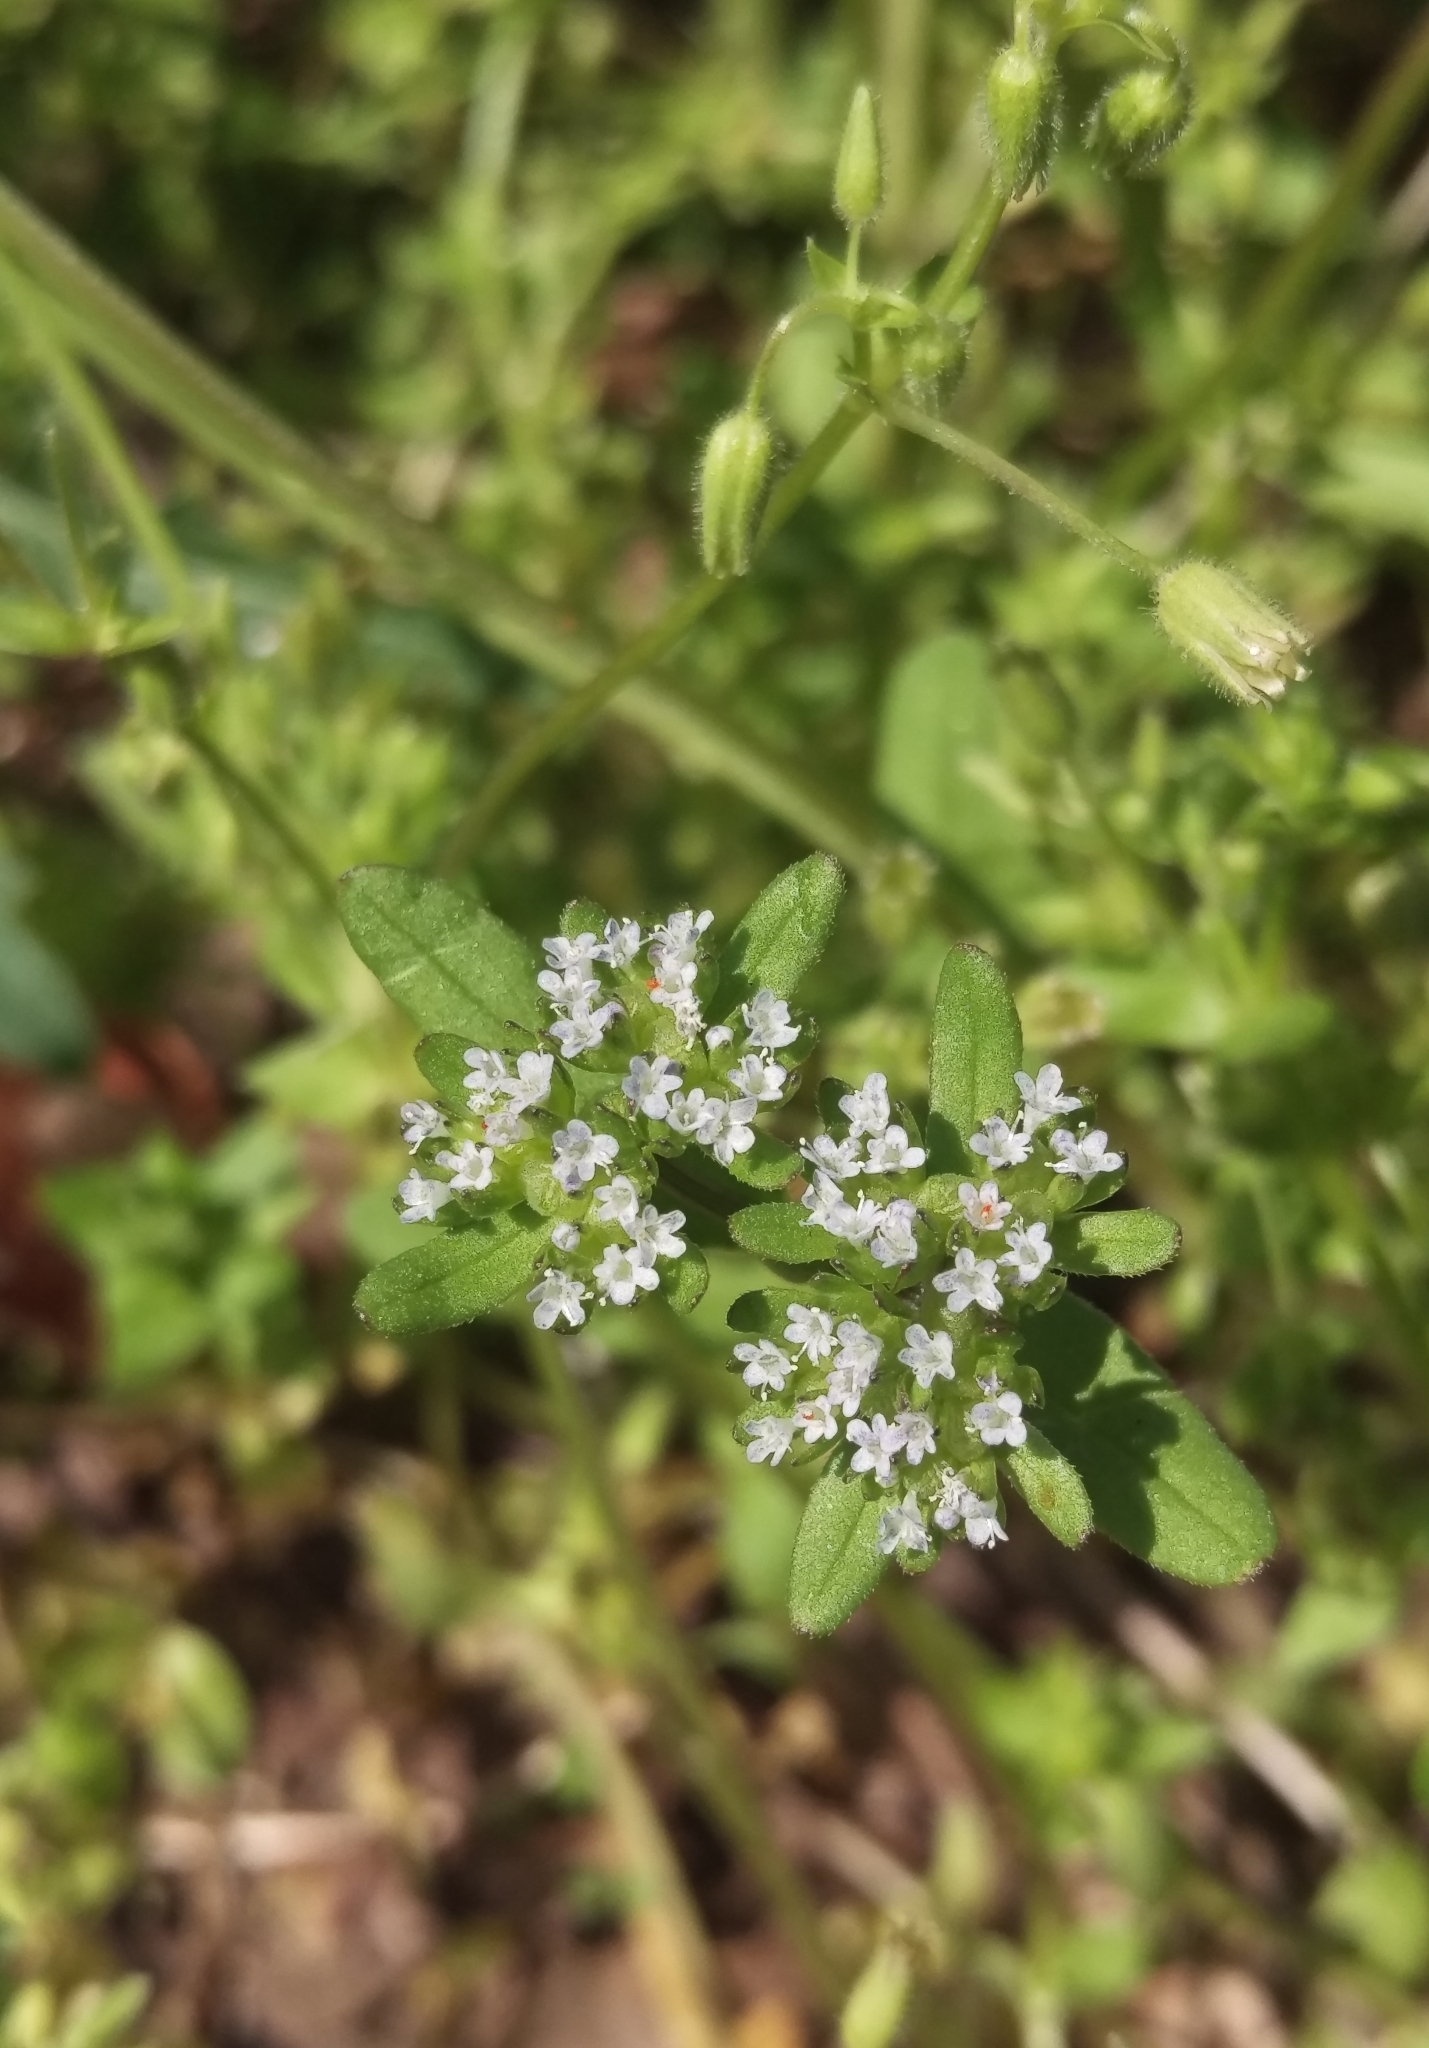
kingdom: Plantae
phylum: Tracheophyta
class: Magnoliopsida
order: Dipsacales
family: Caprifoliaceae
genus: Valerianella
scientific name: Valerianella locusta
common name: Common cornsalad
